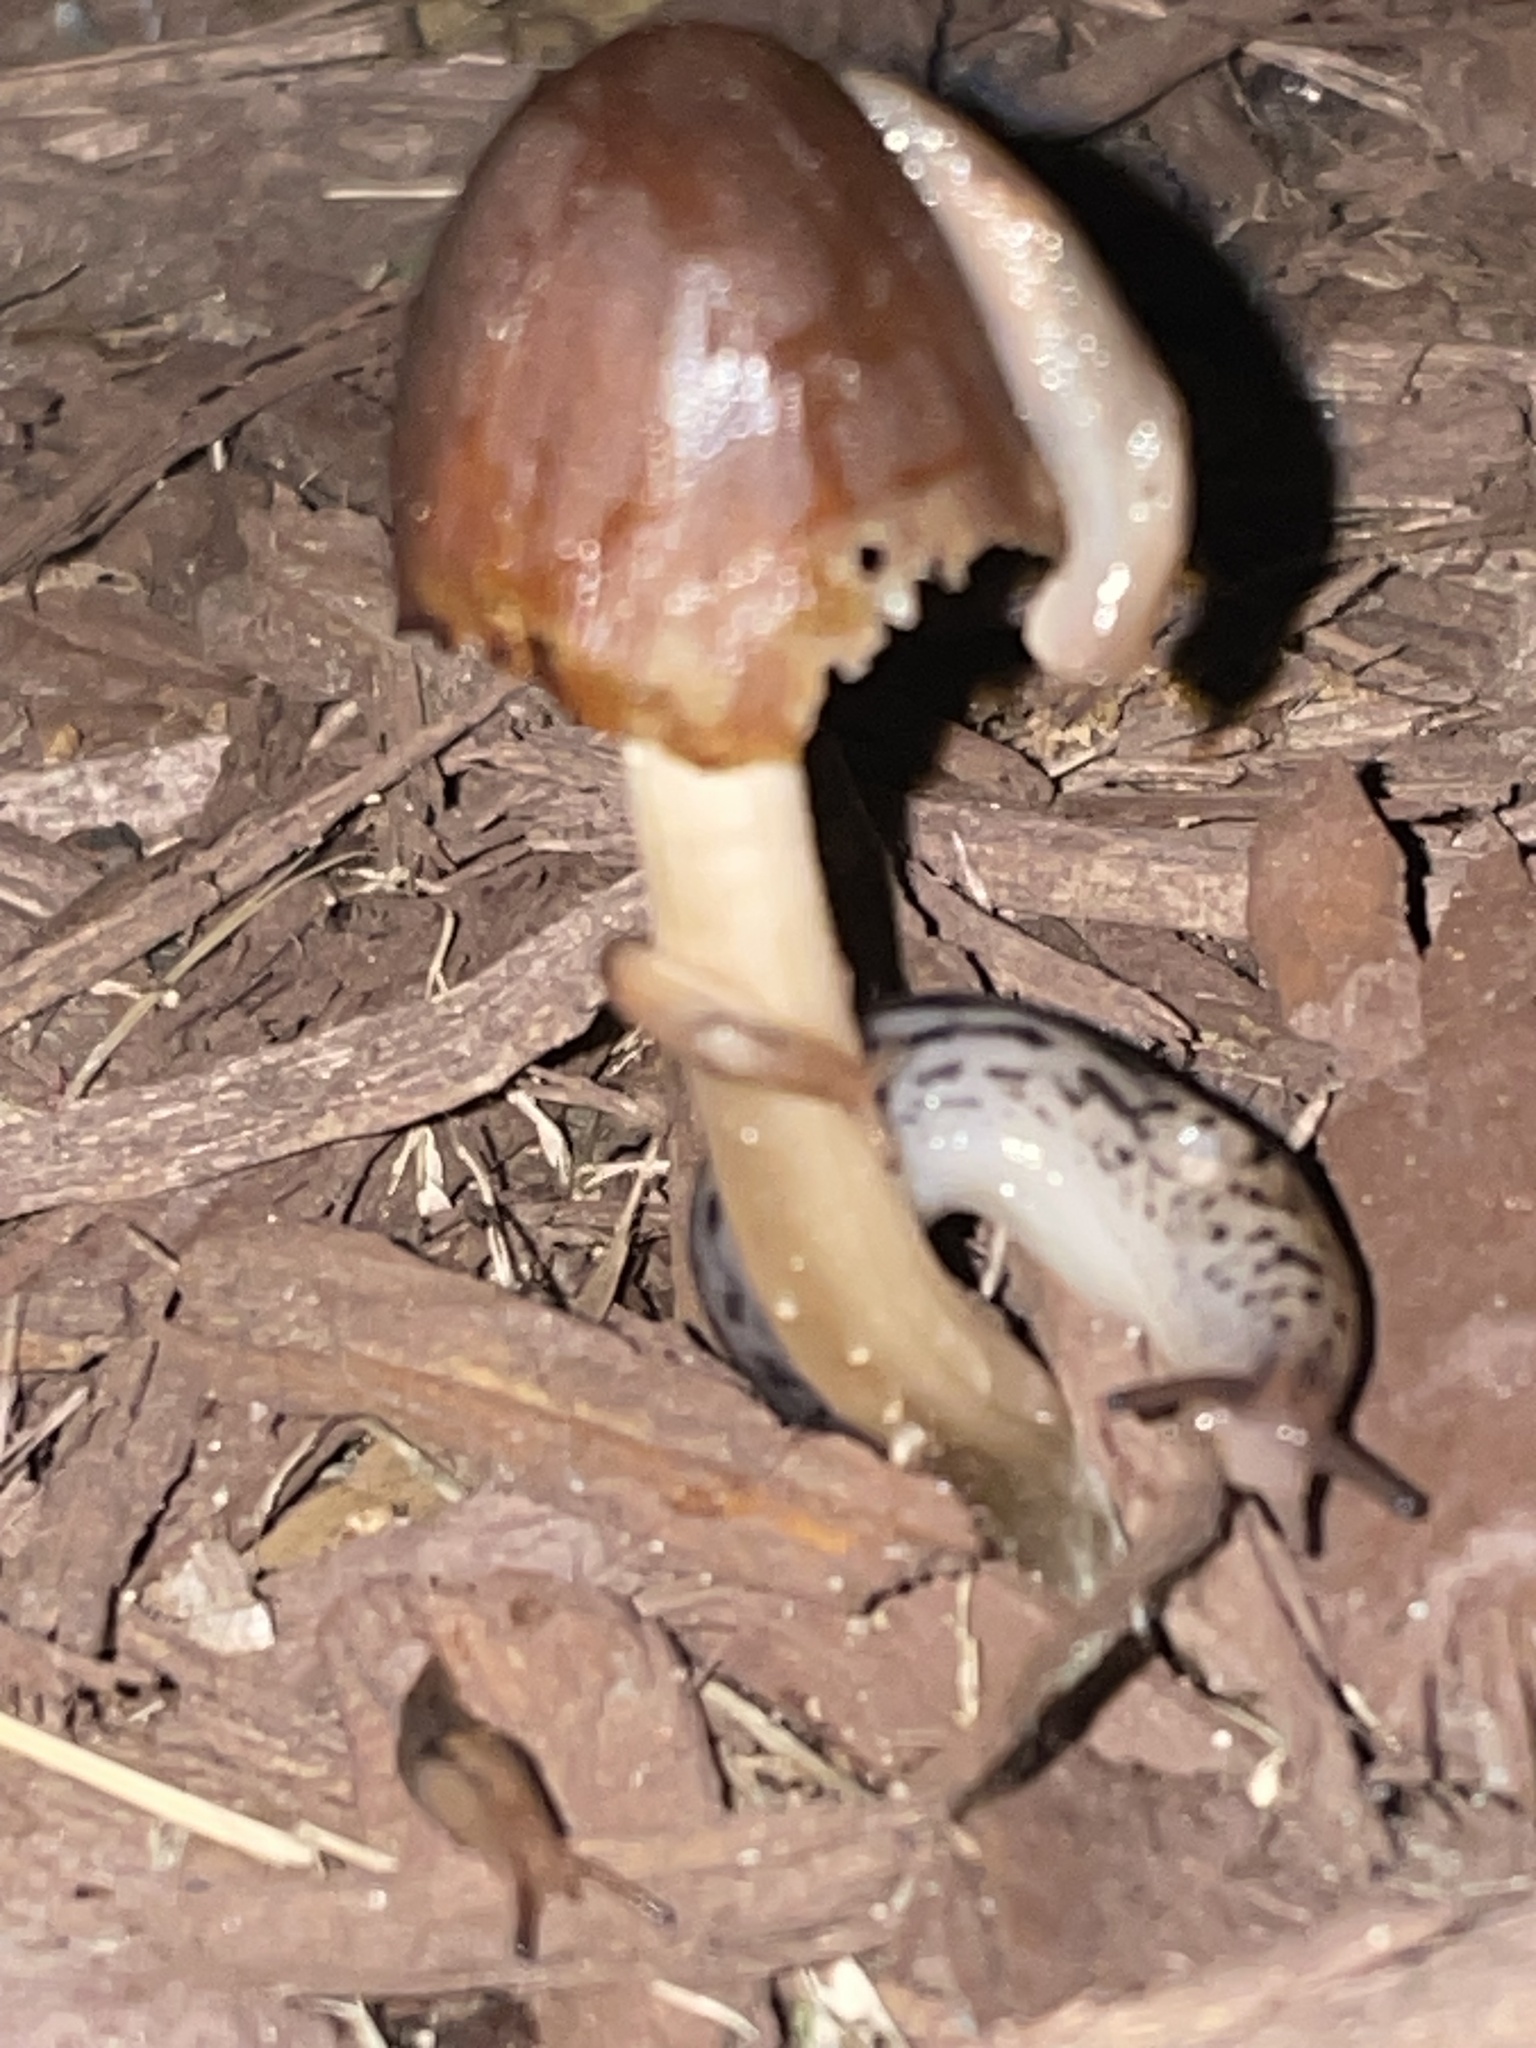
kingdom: Animalia
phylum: Mollusca
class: Gastropoda
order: Stylommatophora
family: Limacidae
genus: Limax
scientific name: Limax maximus
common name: Great grey slug
